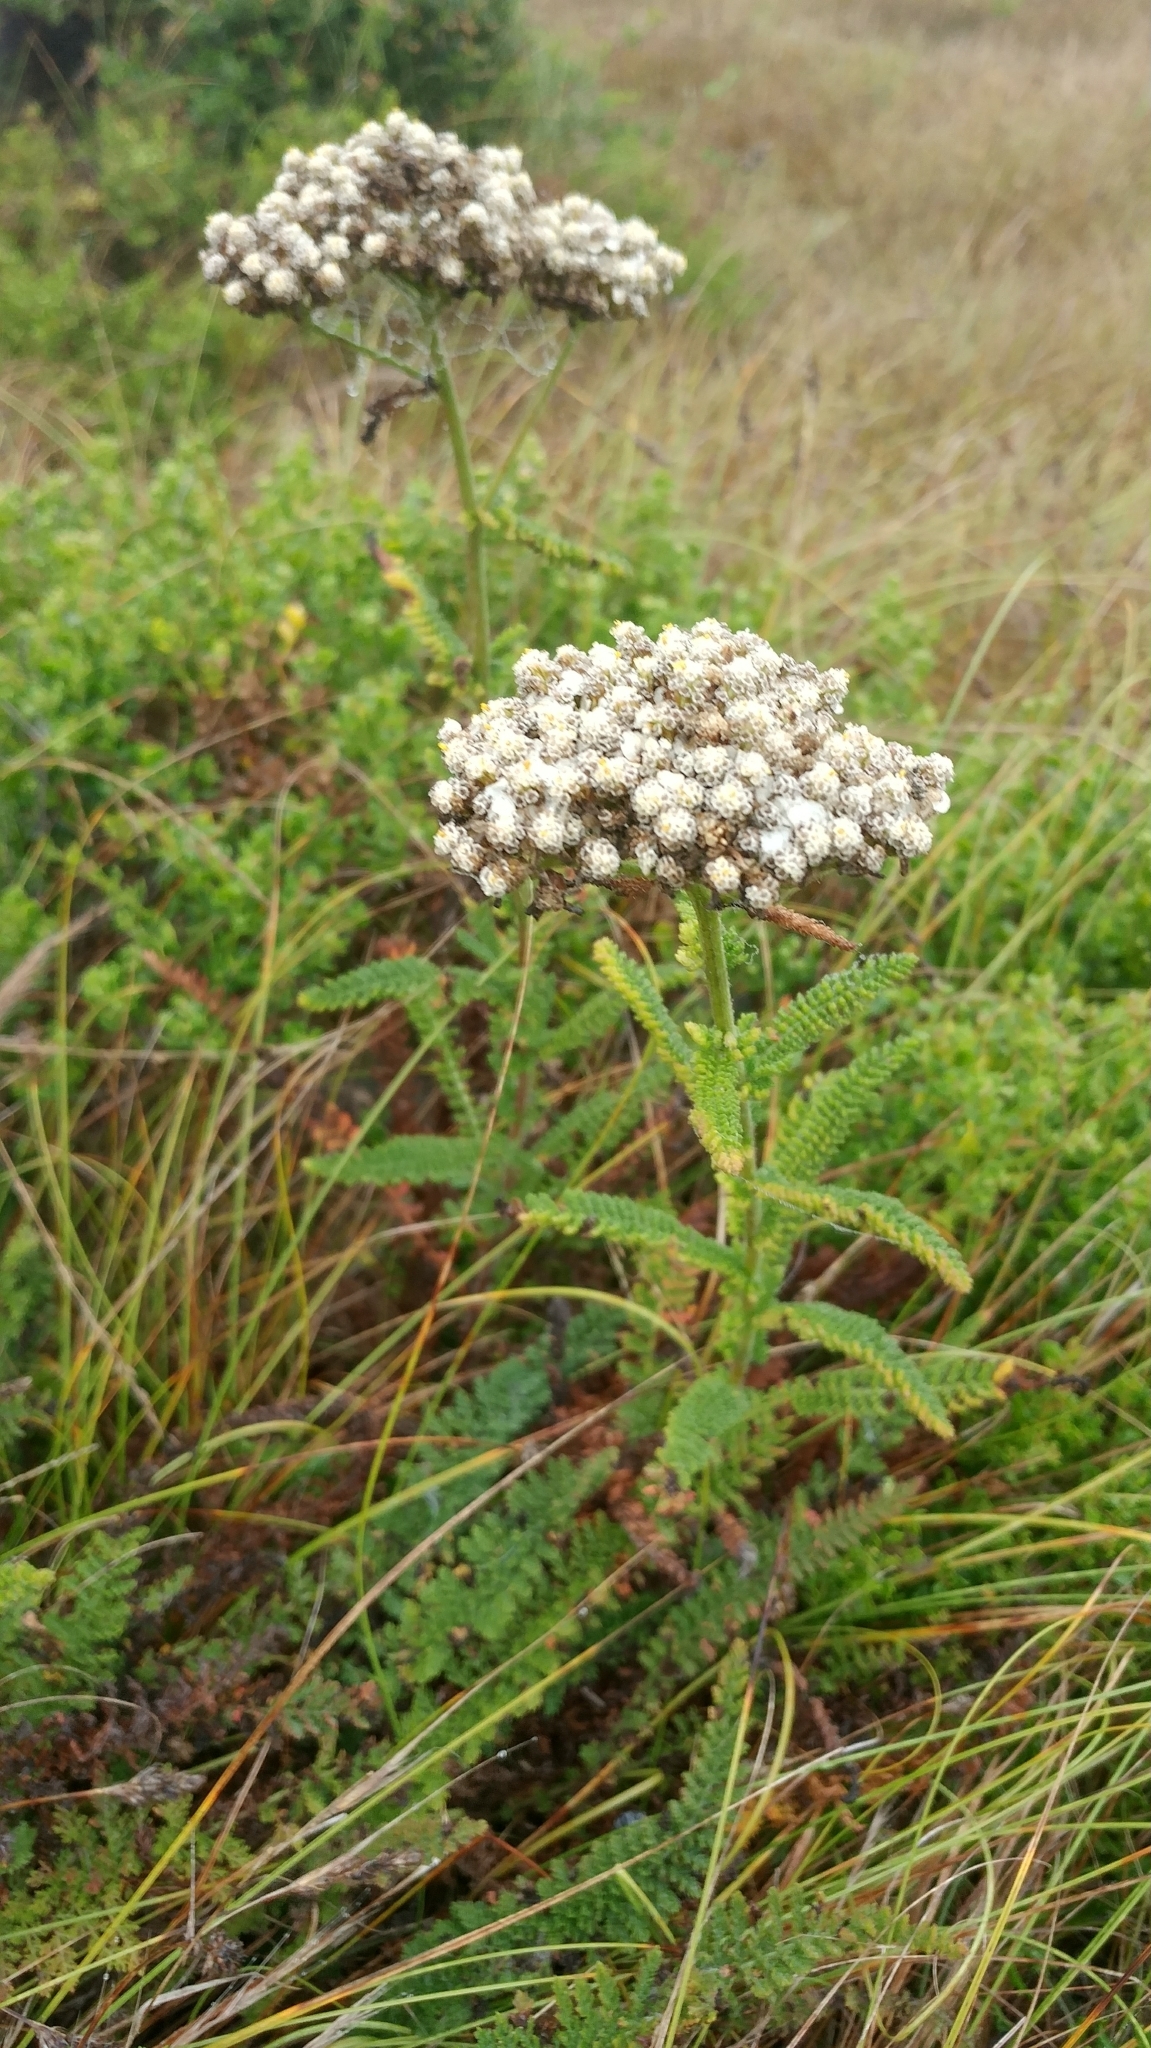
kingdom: Plantae
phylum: Tracheophyta
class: Magnoliopsida
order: Asterales
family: Asteraceae
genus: Achillea
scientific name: Achillea millefolium
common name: Yarrow
